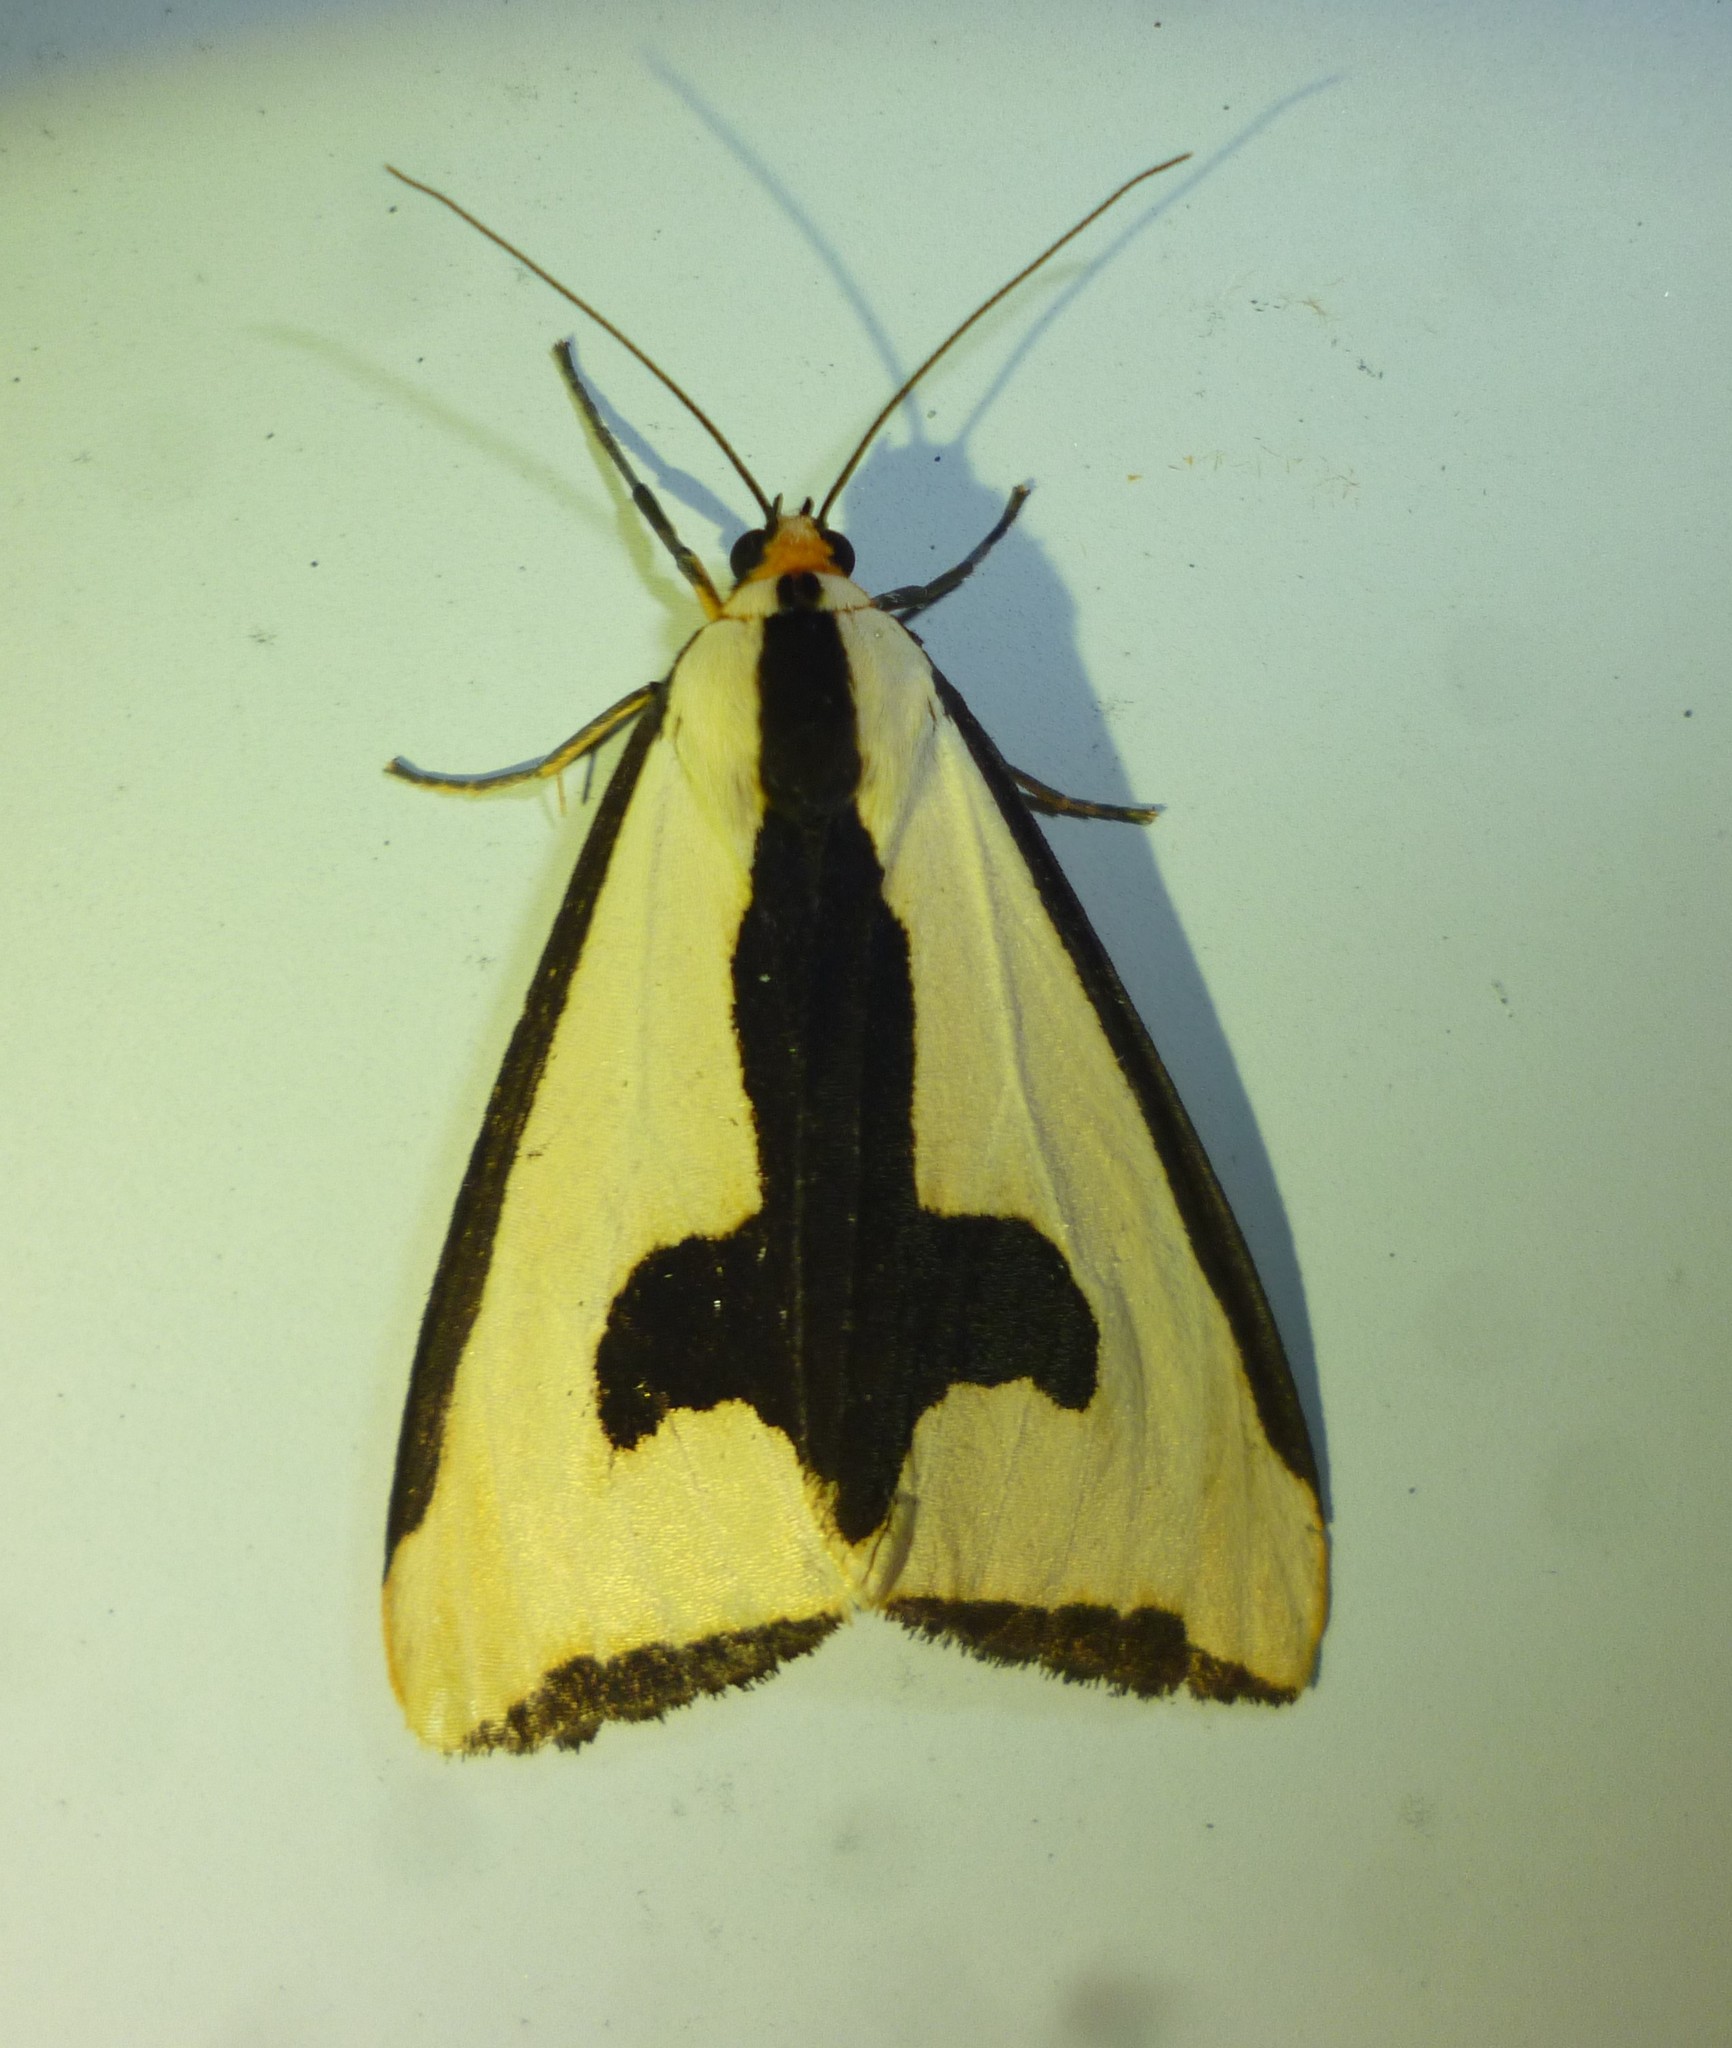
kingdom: Animalia
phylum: Arthropoda
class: Insecta
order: Lepidoptera
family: Erebidae
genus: Haploa
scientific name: Haploa clymene
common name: Clymene moth
